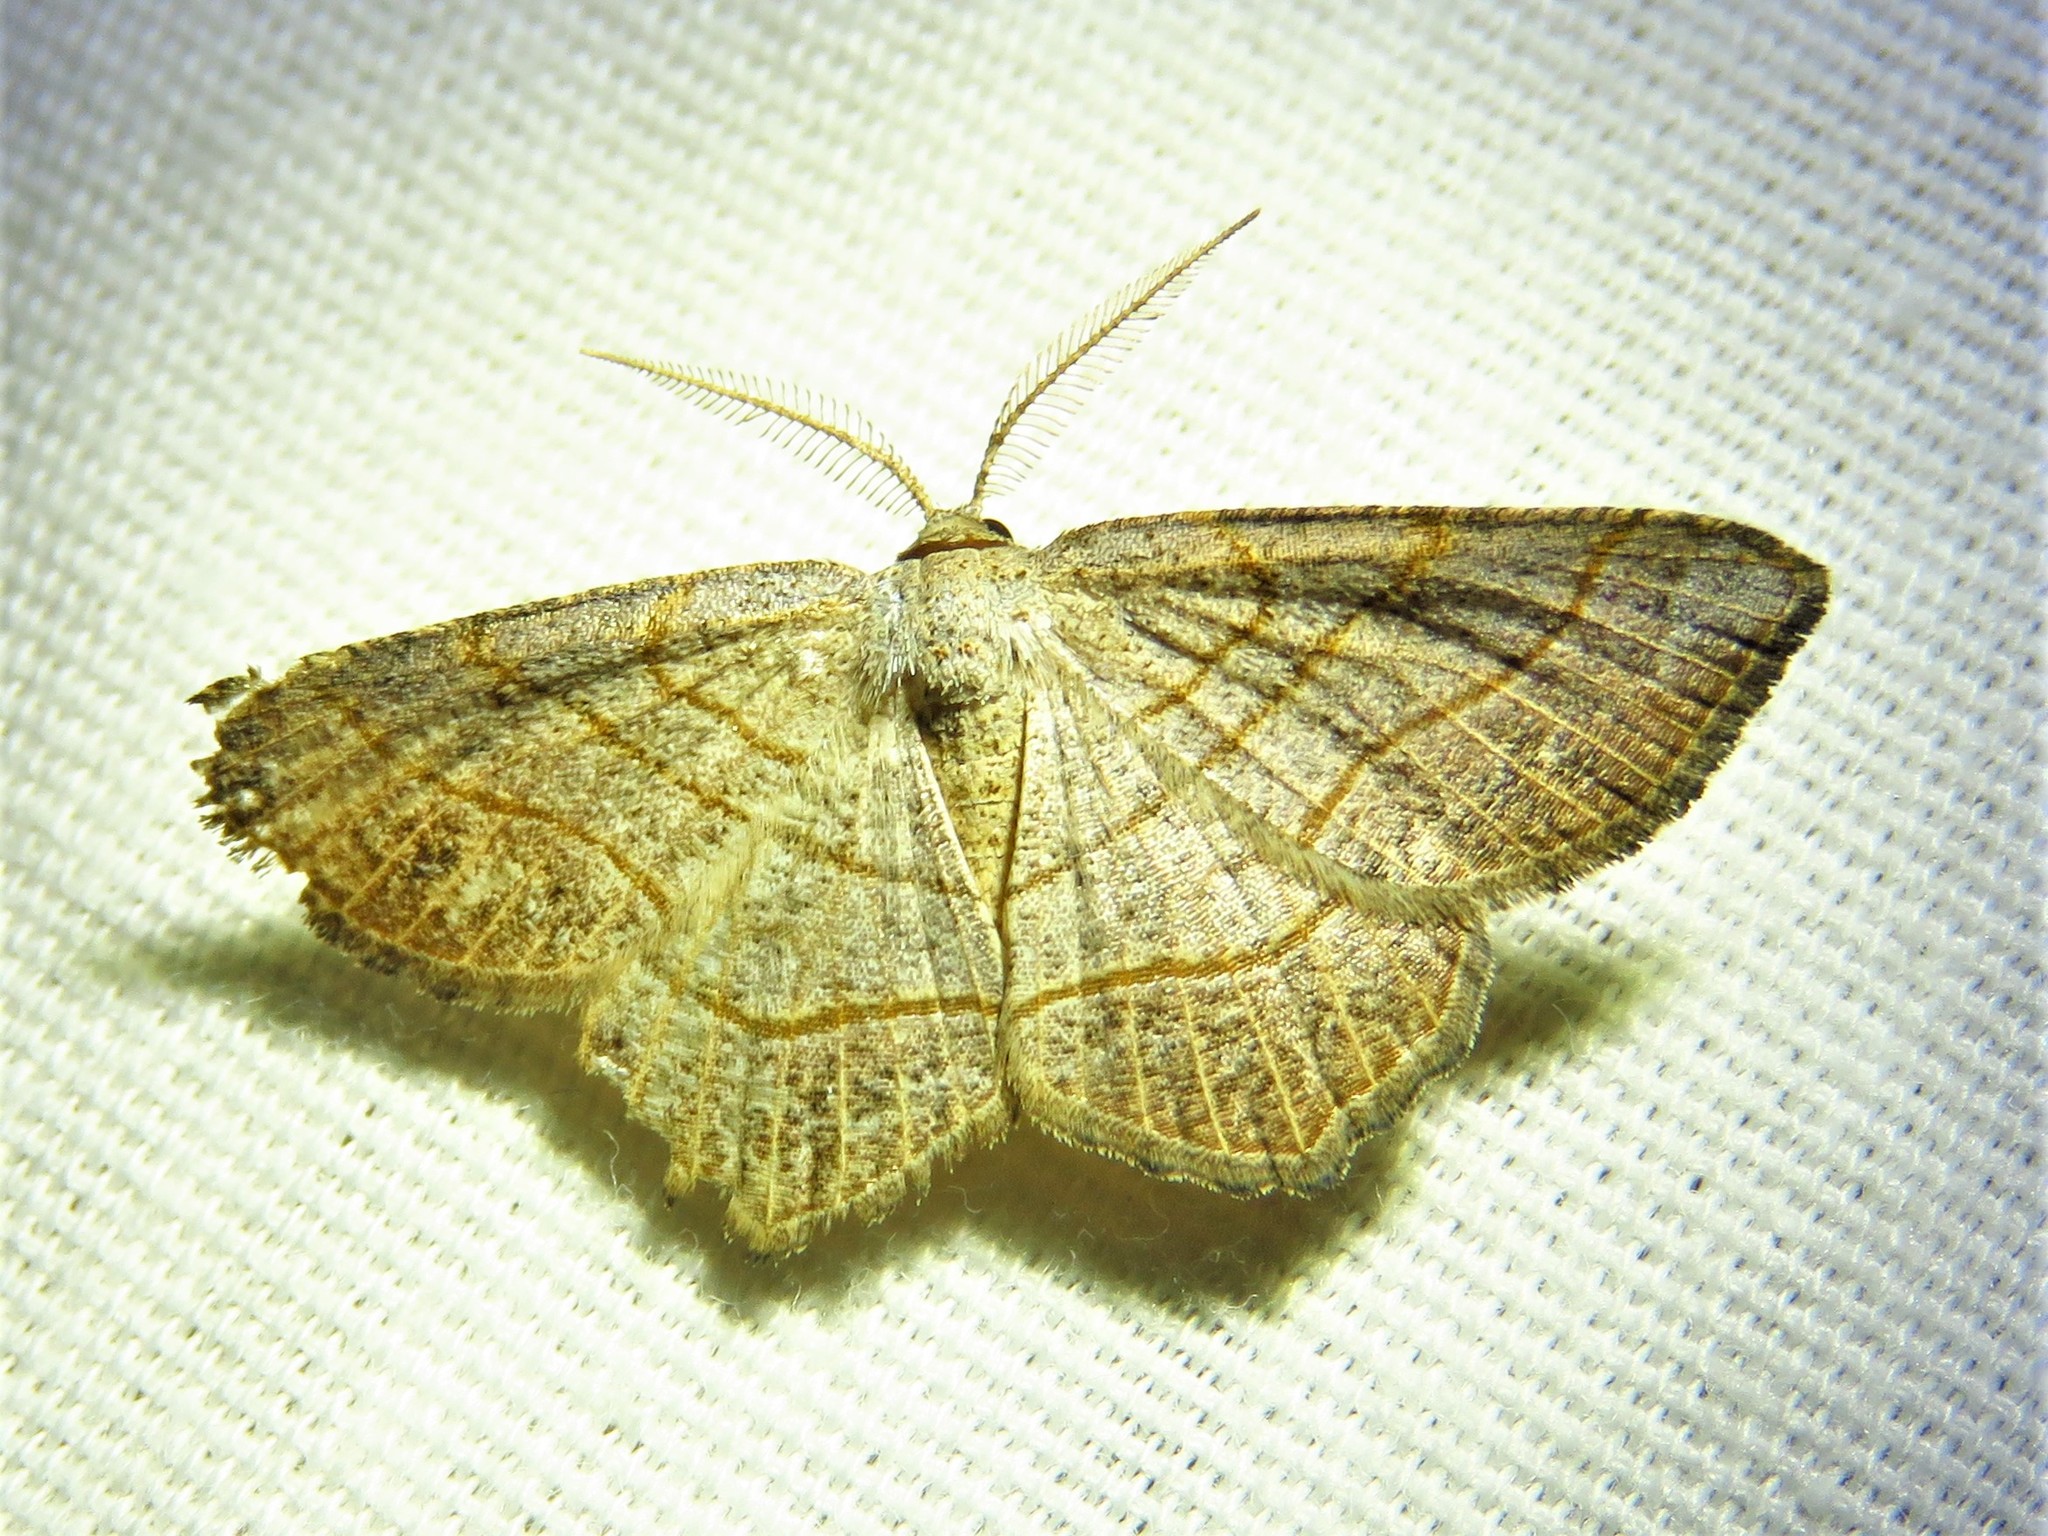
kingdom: Animalia
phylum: Arthropoda
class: Insecta
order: Lepidoptera
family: Geometridae
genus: Eumacaria
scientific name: Eumacaria madopata
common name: Brown-bordered geometer
